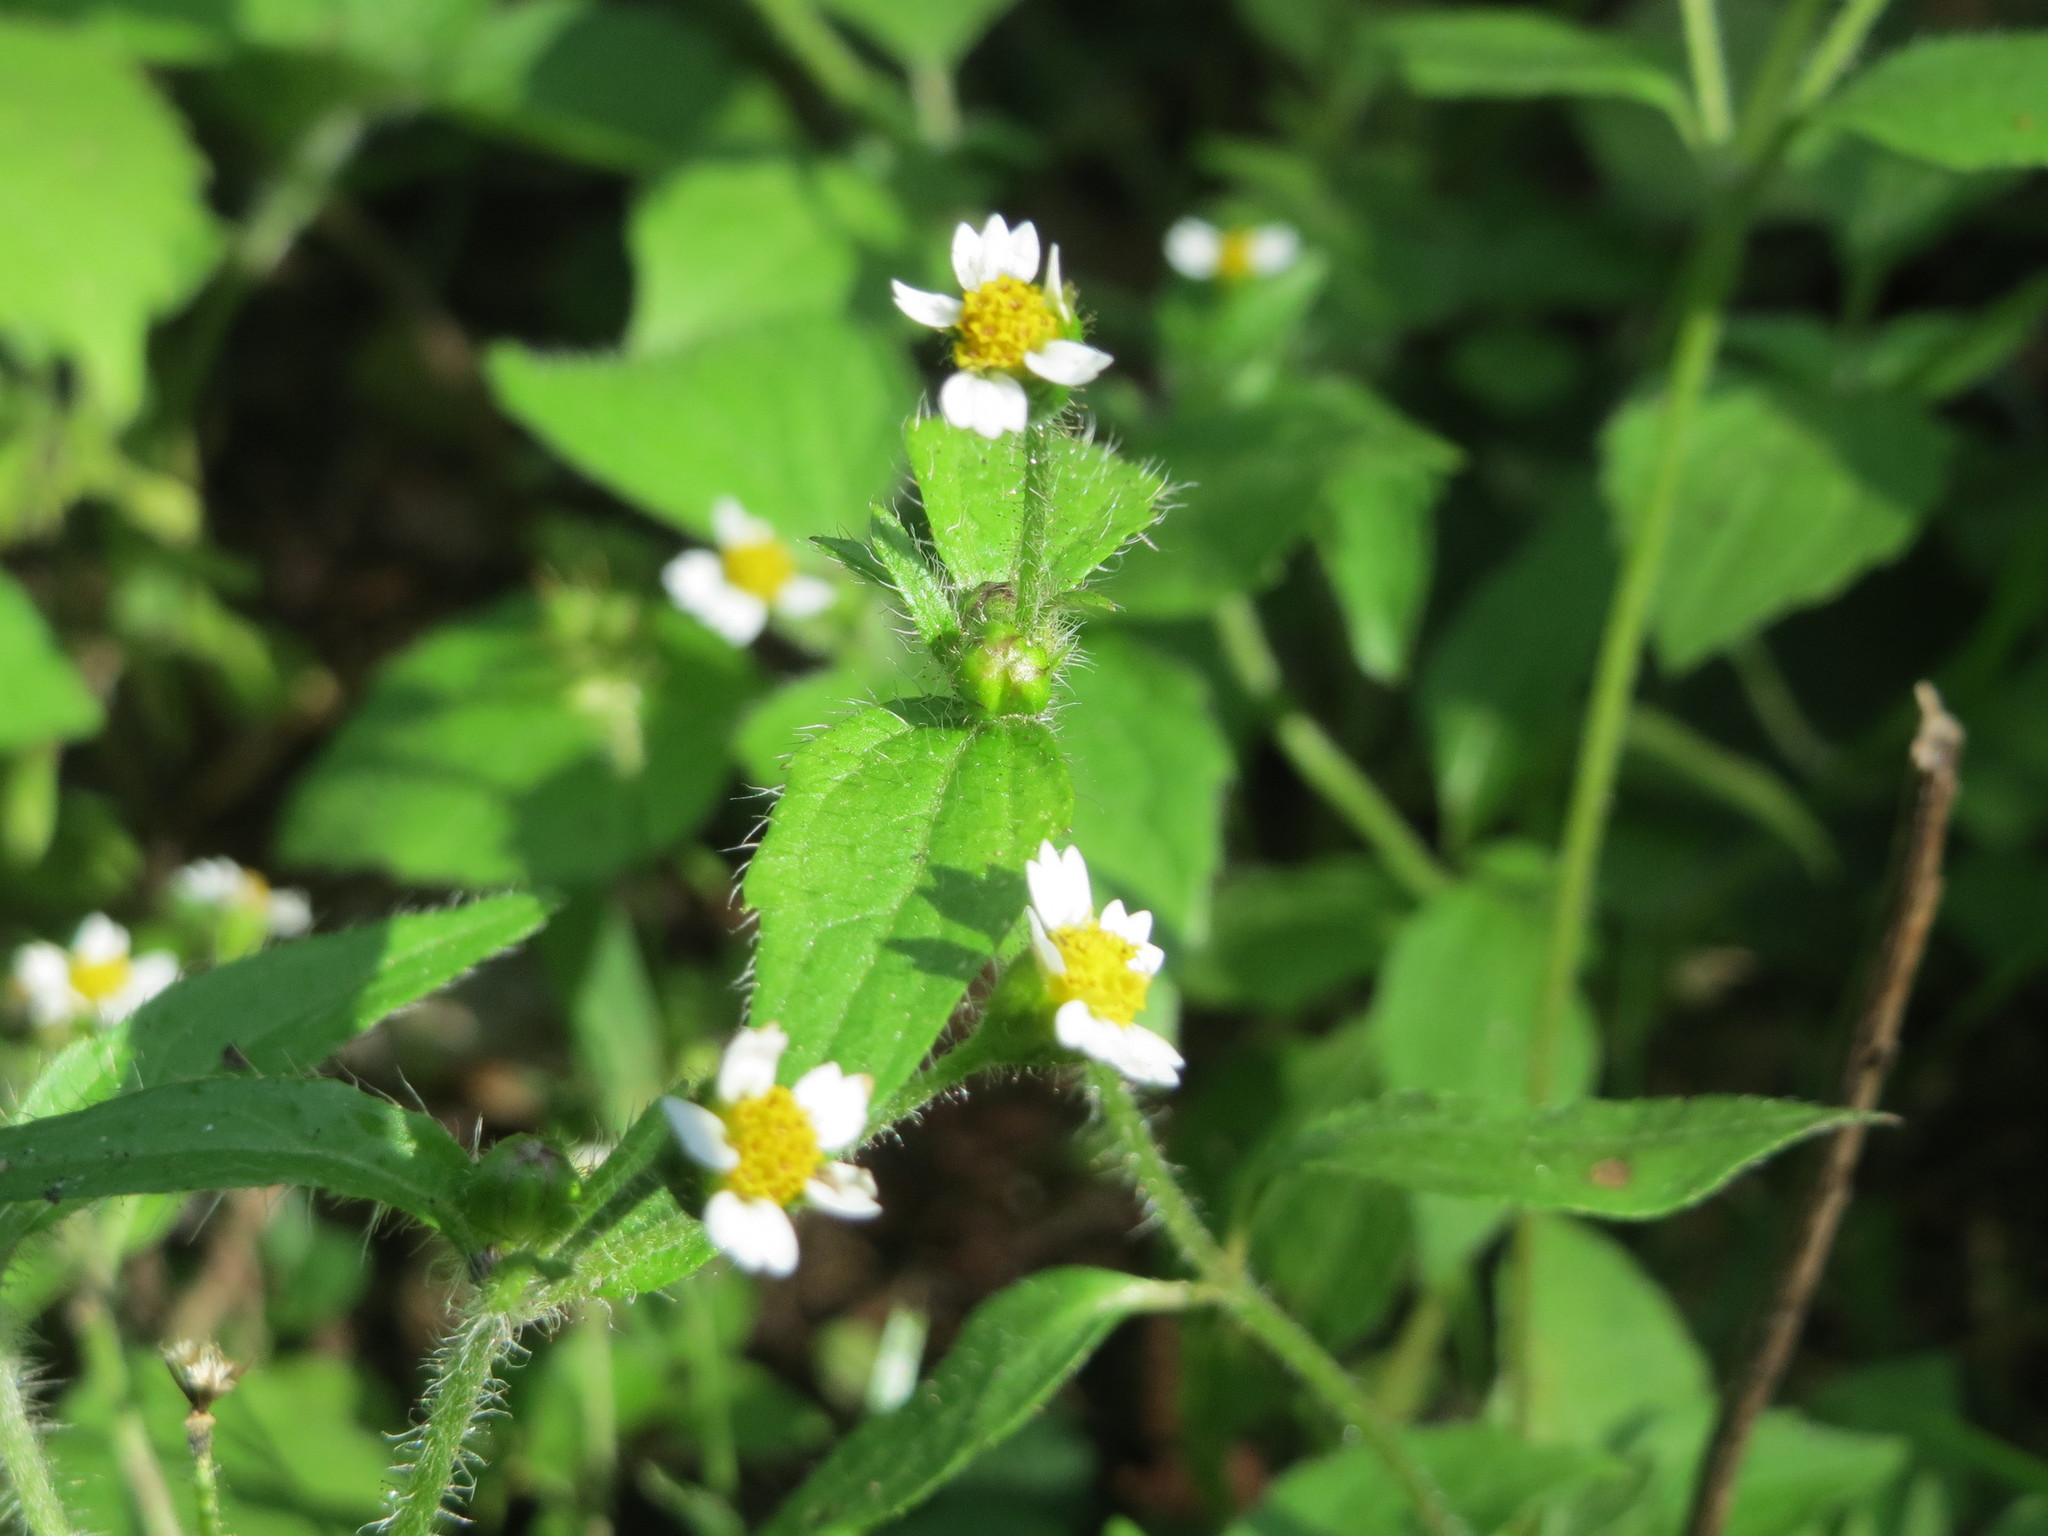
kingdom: Plantae
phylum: Tracheophyta
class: Magnoliopsida
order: Asterales
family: Asteraceae
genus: Galinsoga
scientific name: Galinsoga quadriradiata
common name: Shaggy soldier
